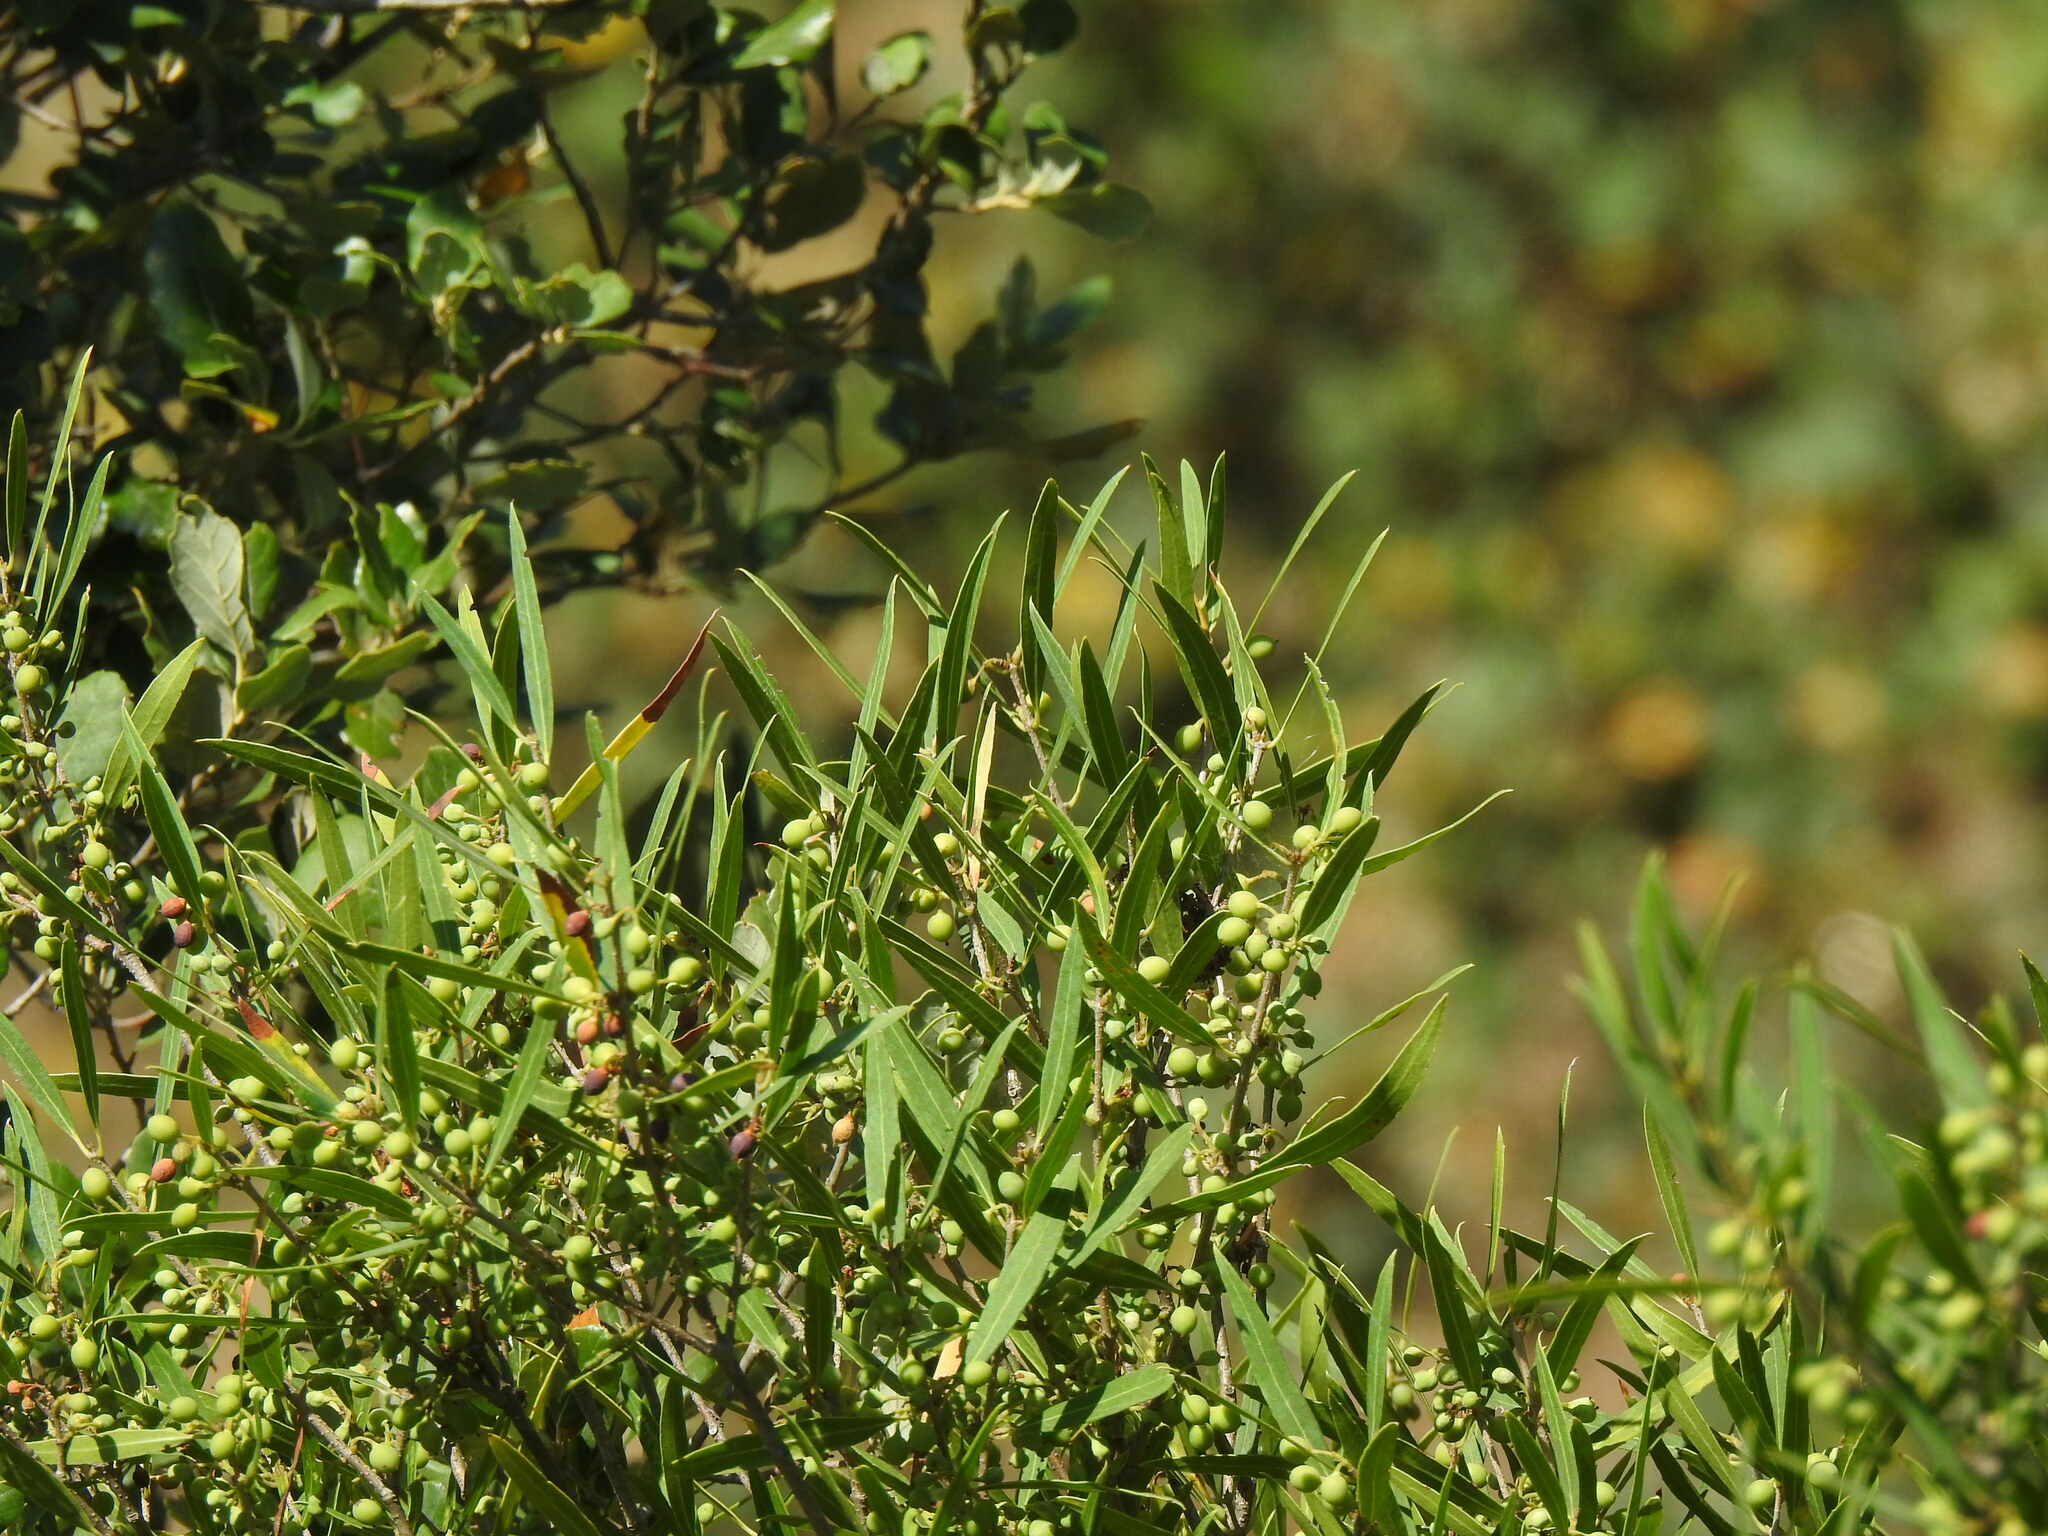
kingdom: Plantae
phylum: Tracheophyta
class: Magnoliopsida
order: Lamiales
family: Oleaceae
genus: Phillyrea
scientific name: Phillyrea angustifolia
